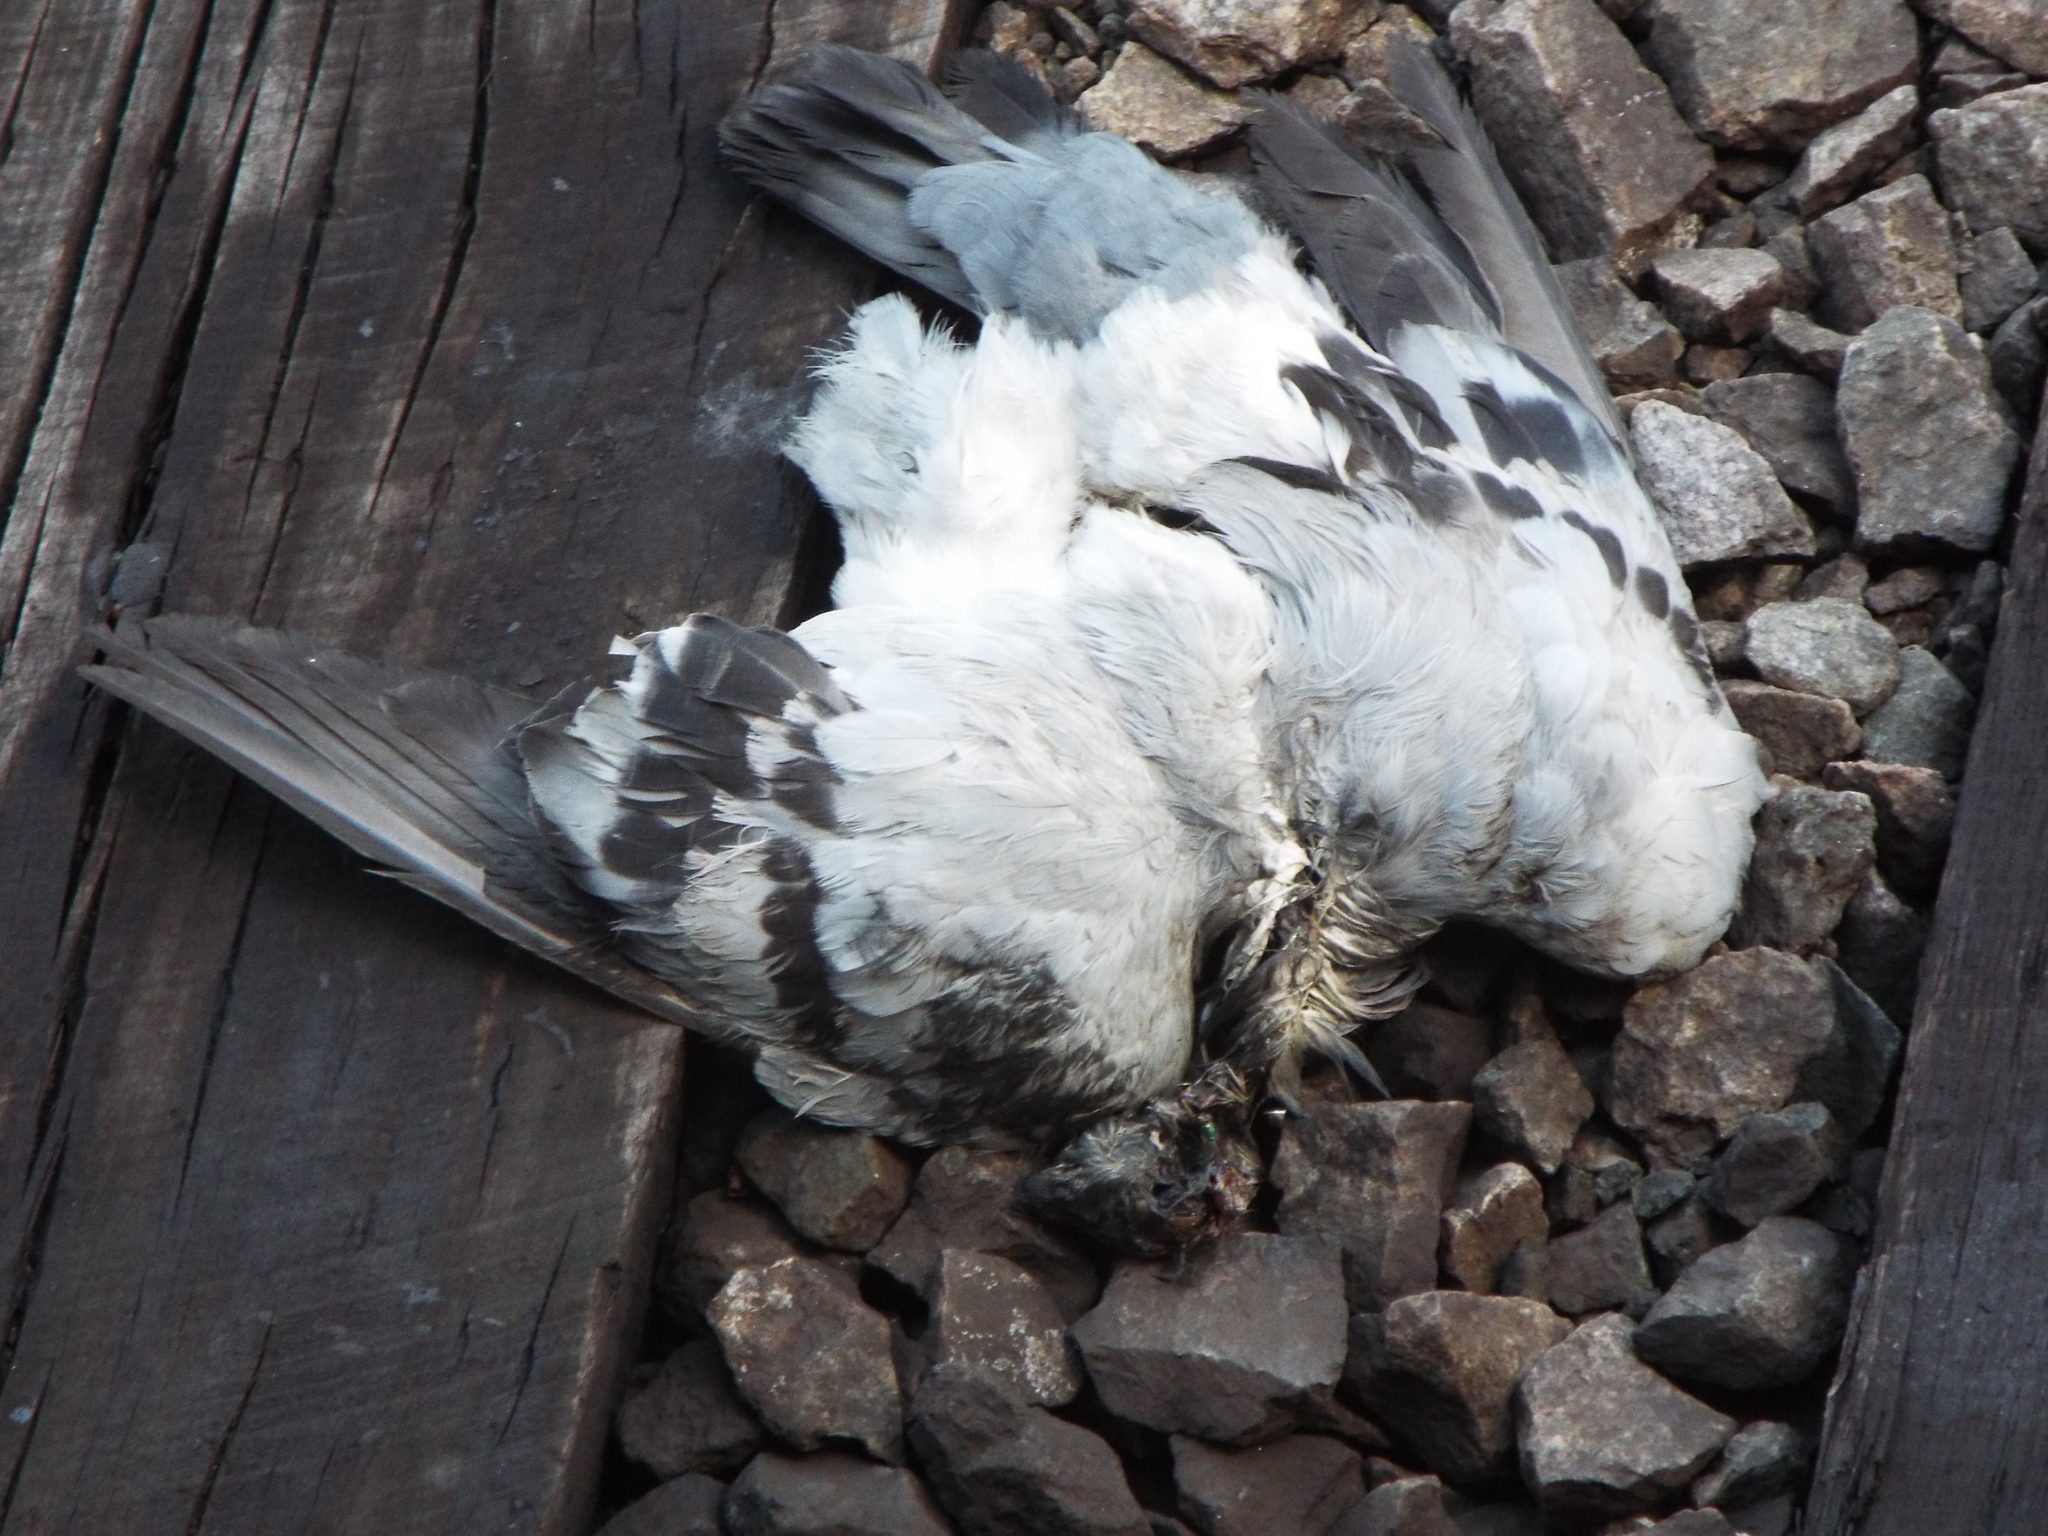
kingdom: Animalia
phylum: Chordata
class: Aves
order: Columbiformes
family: Columbidae
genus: Columba
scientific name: Columba livia
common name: Rock pigeon
